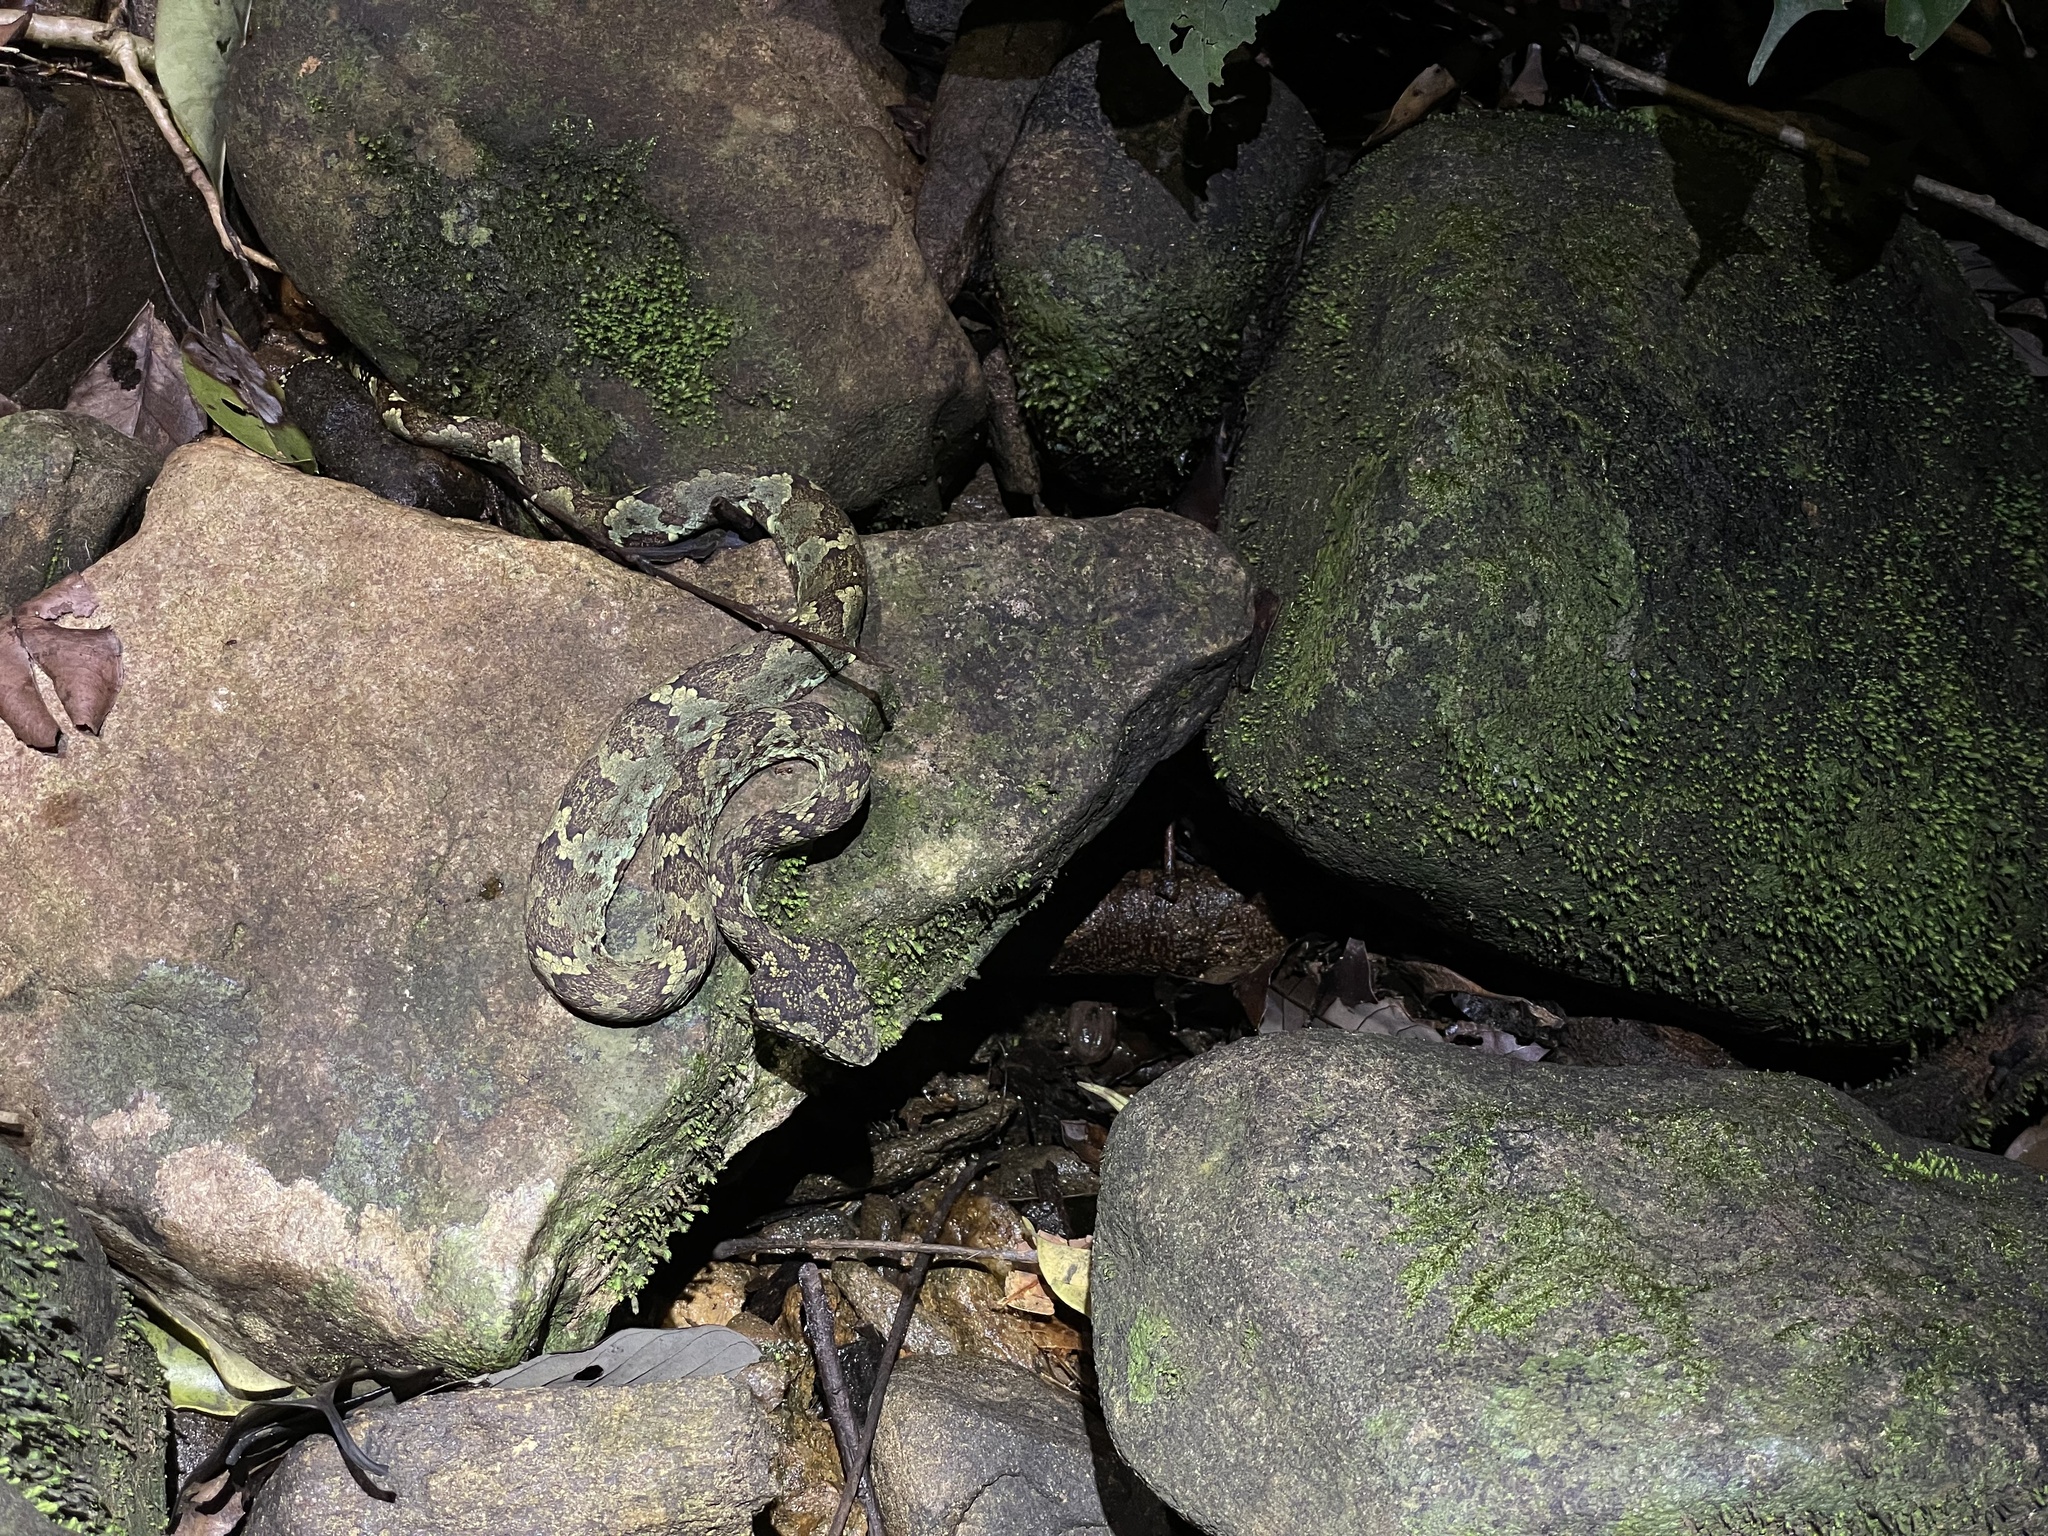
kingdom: Animalia
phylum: Chordata
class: Squamata
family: Viperidae
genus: Craspedocephalus
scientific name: Craspedocephalus malabaricus
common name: Malabarian pit viper
